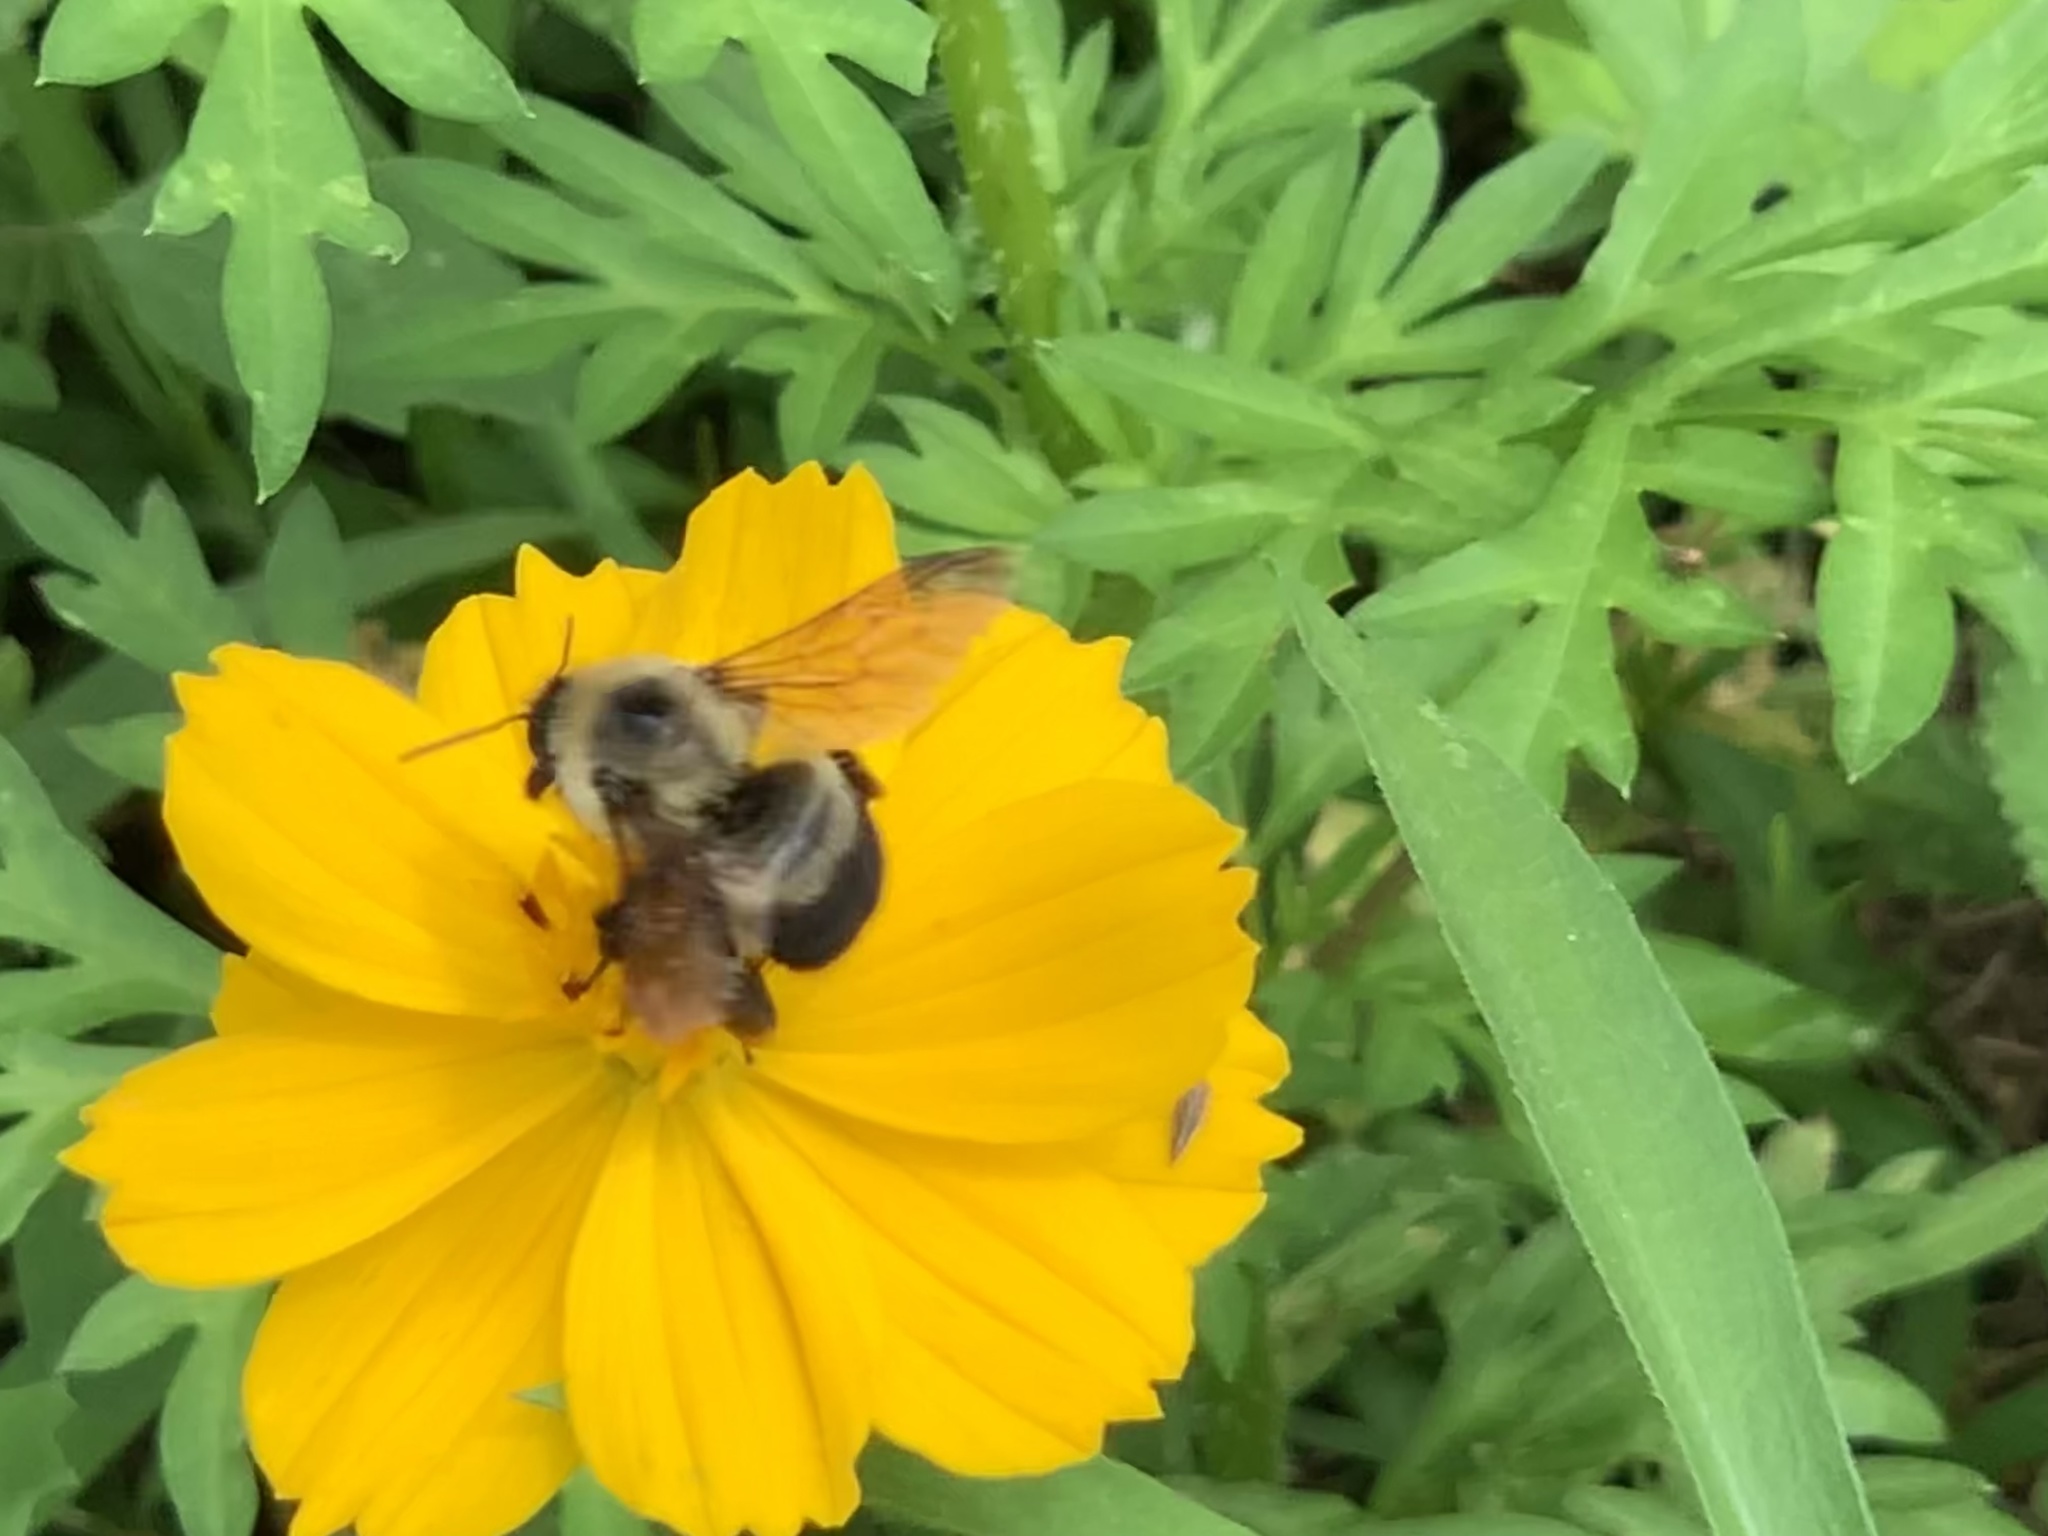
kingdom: Animalia
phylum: Arthropoda
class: Insecta
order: Hymenoptera
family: Apidae
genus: Bombus
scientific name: Bombus griseocollis
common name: Brown-belted bumble bee
